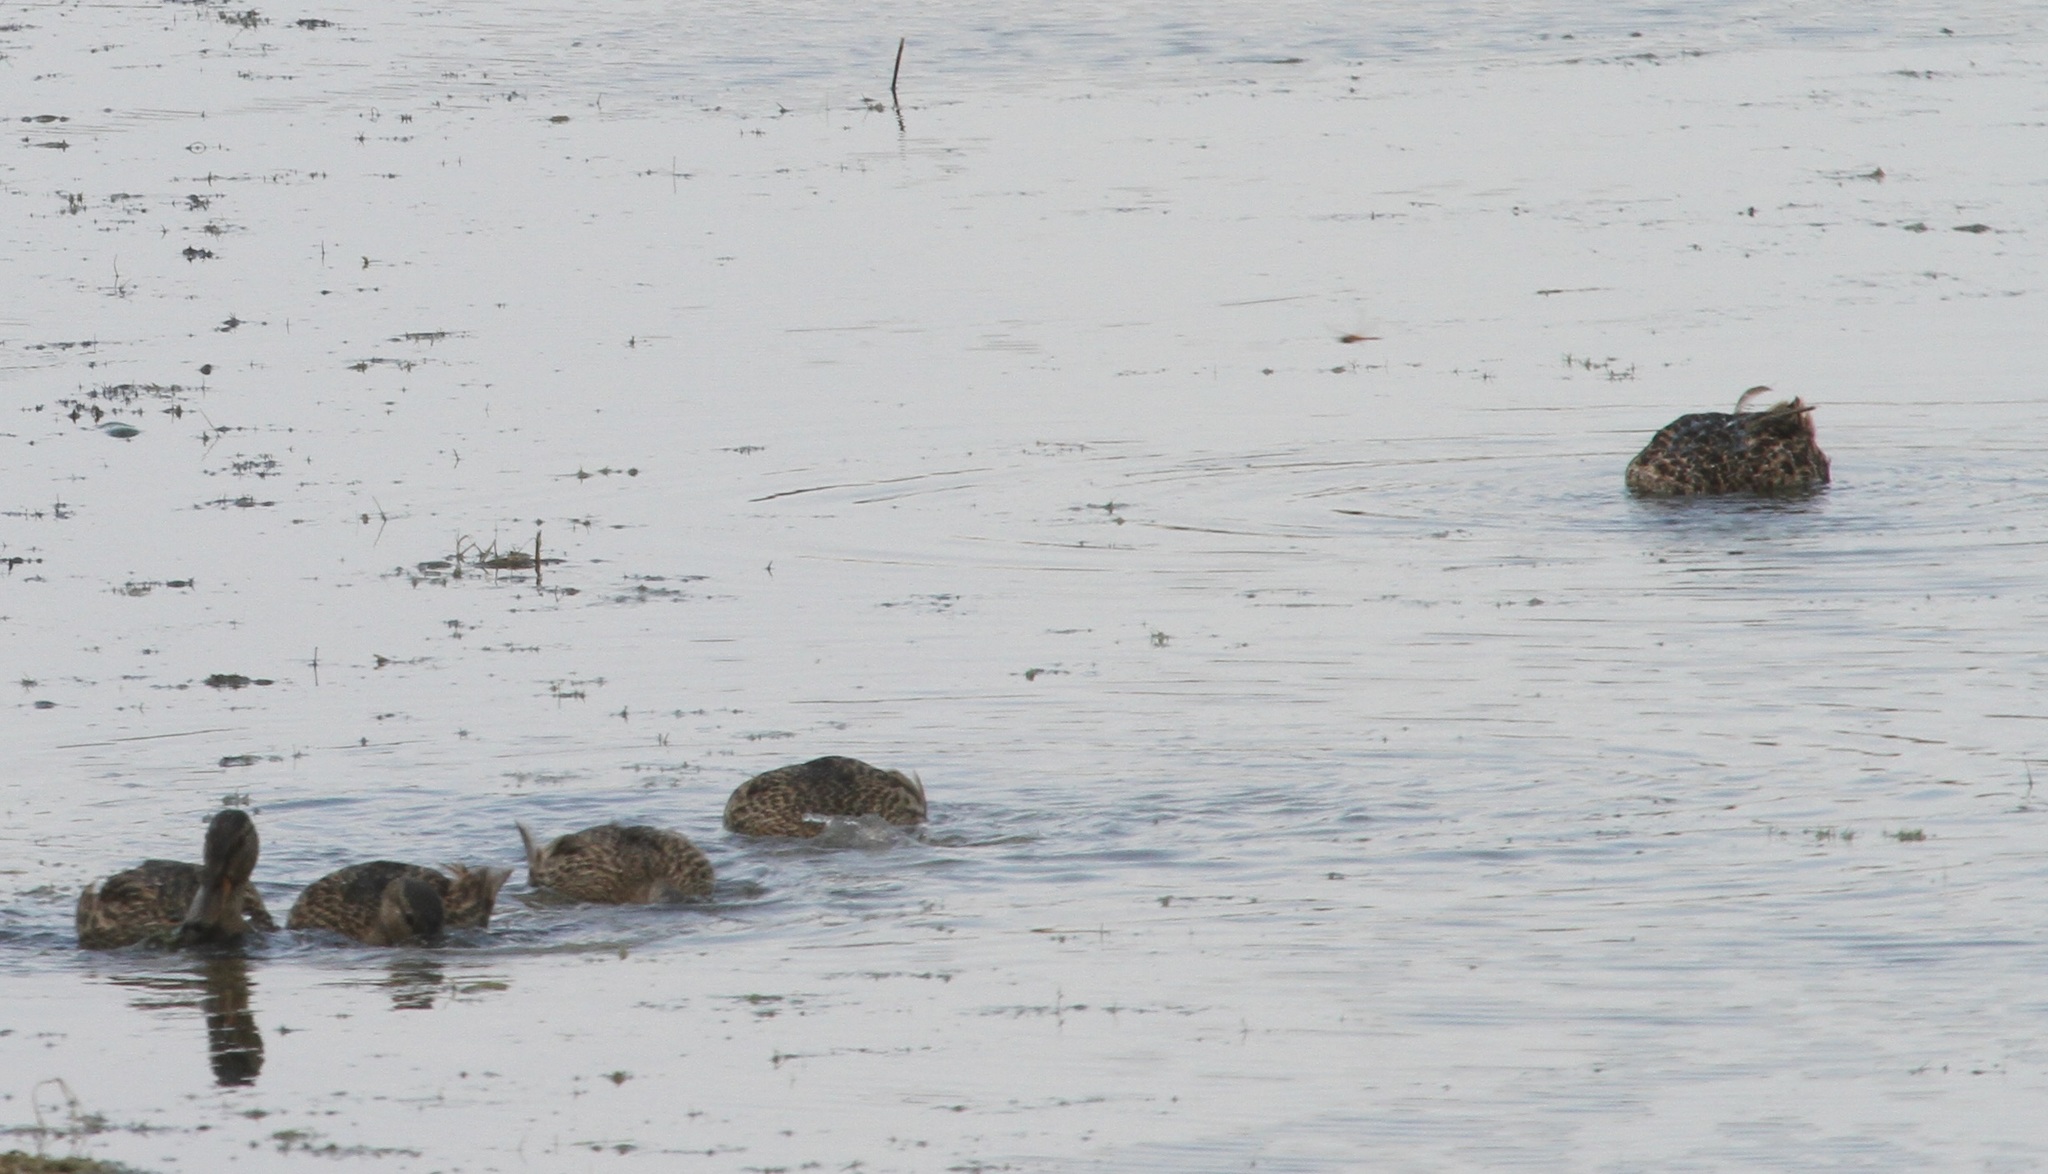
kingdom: Animalia
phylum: Chordata
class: Aves
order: Anseriformes
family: Anatidae
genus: Anas
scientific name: Anas platyrhynchos
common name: Mallard
